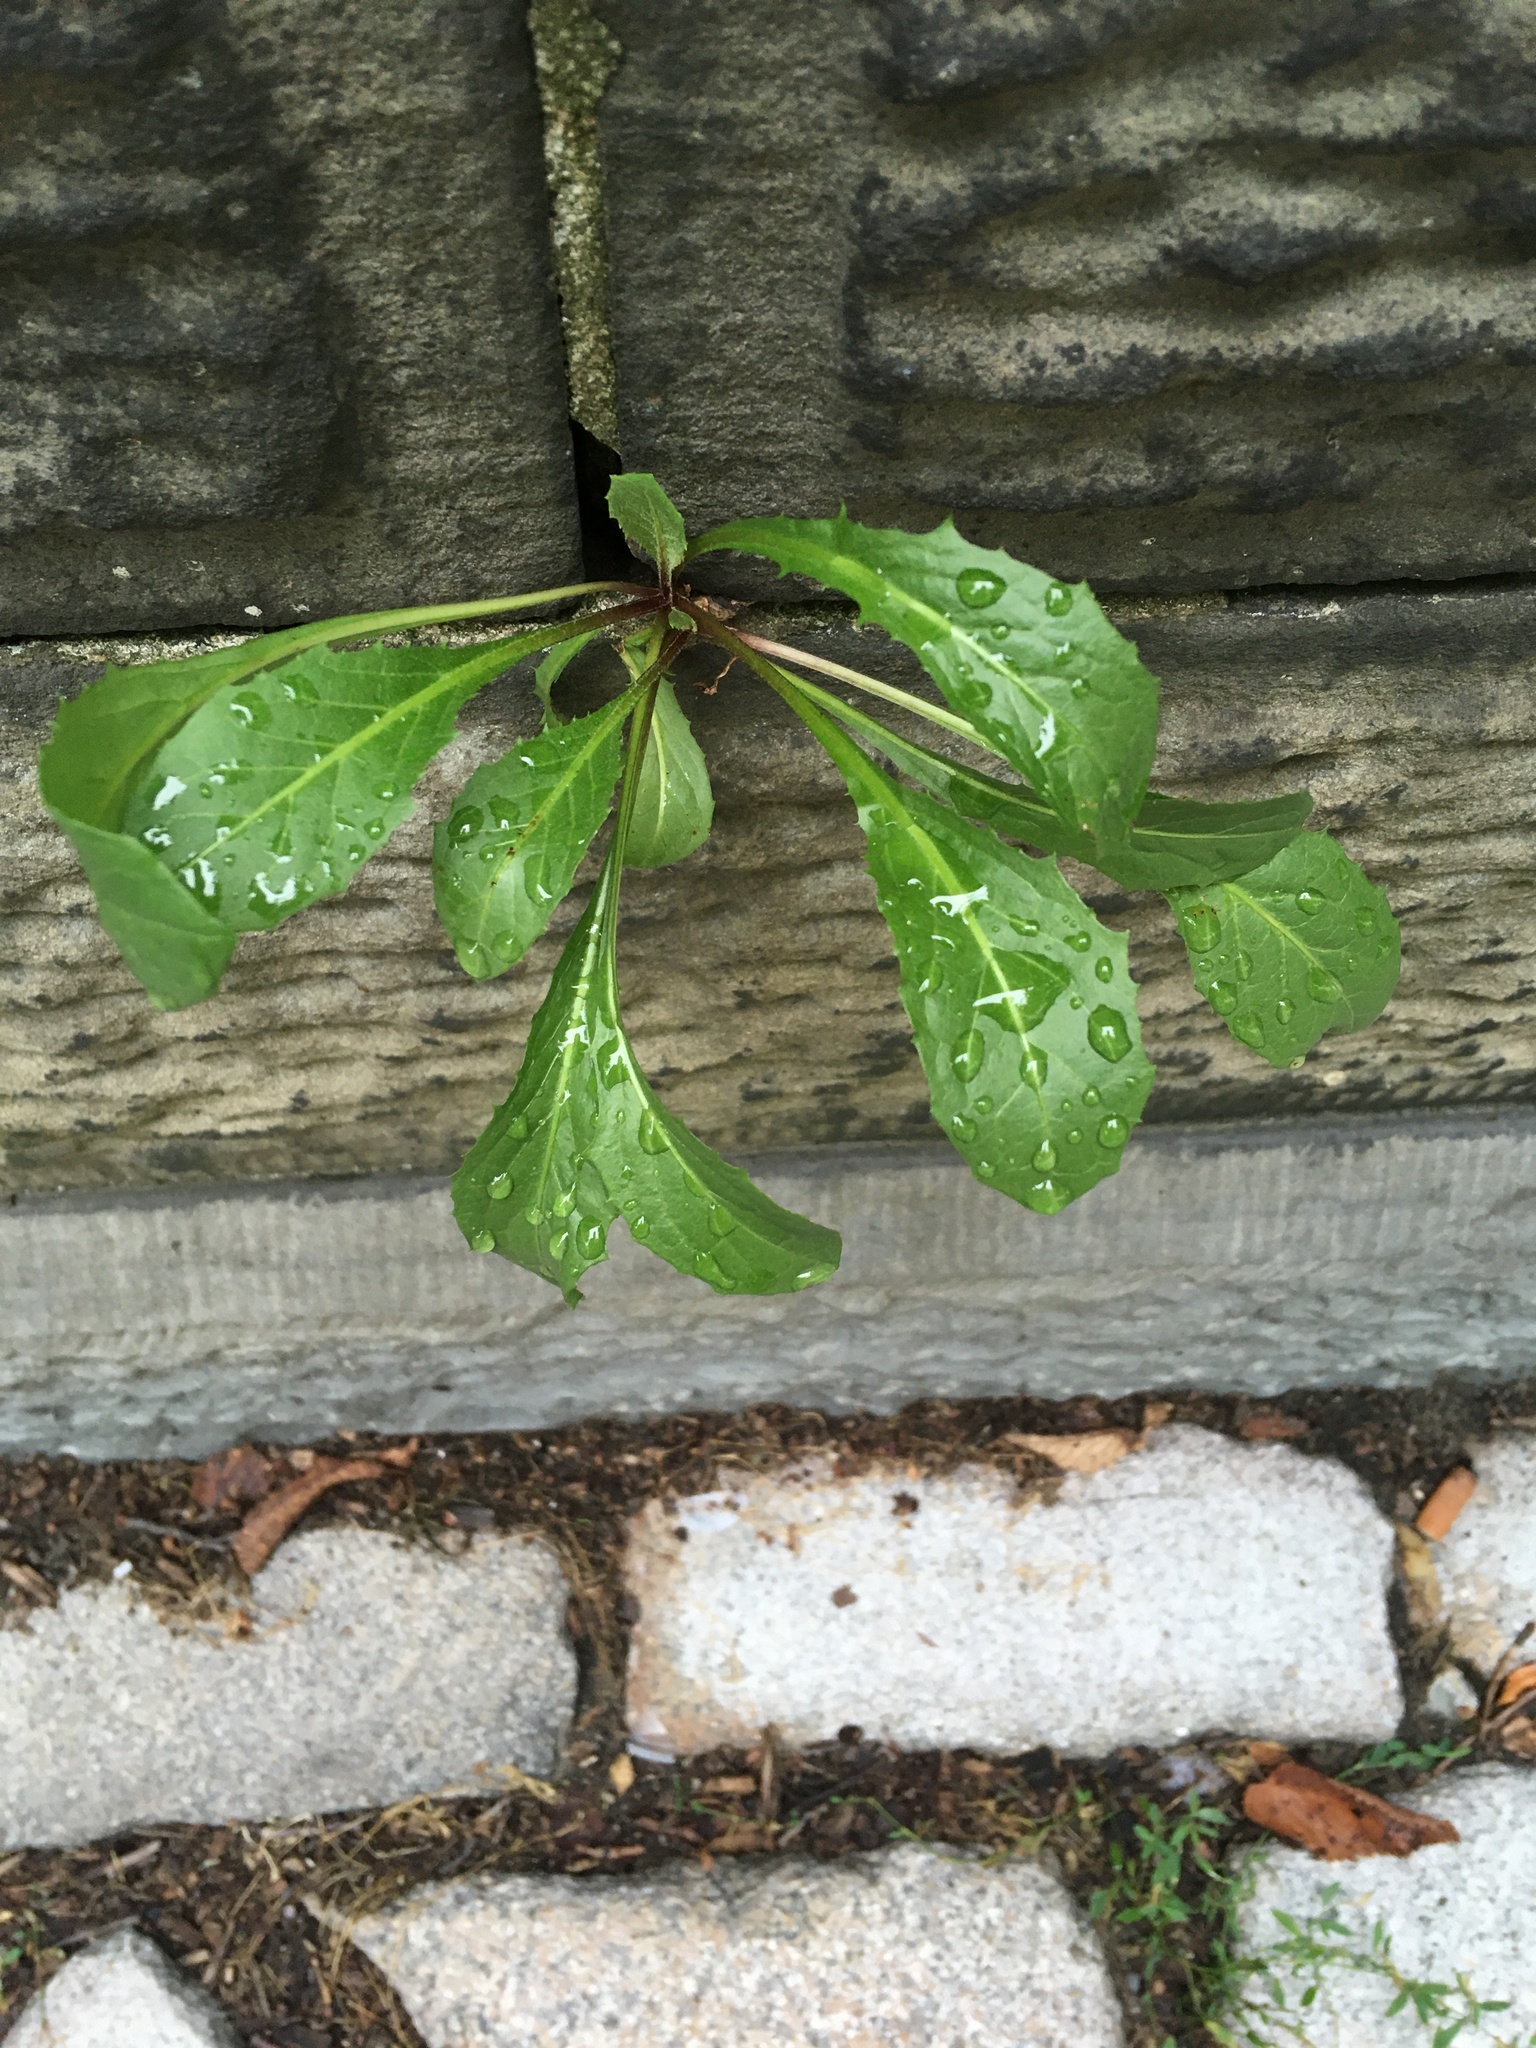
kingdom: Plantae
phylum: Tracheophyta
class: Magnoliopsida
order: Asterales
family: Asteraceae
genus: Taraxacum
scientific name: Taraxacum officinale
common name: Common dandelion
